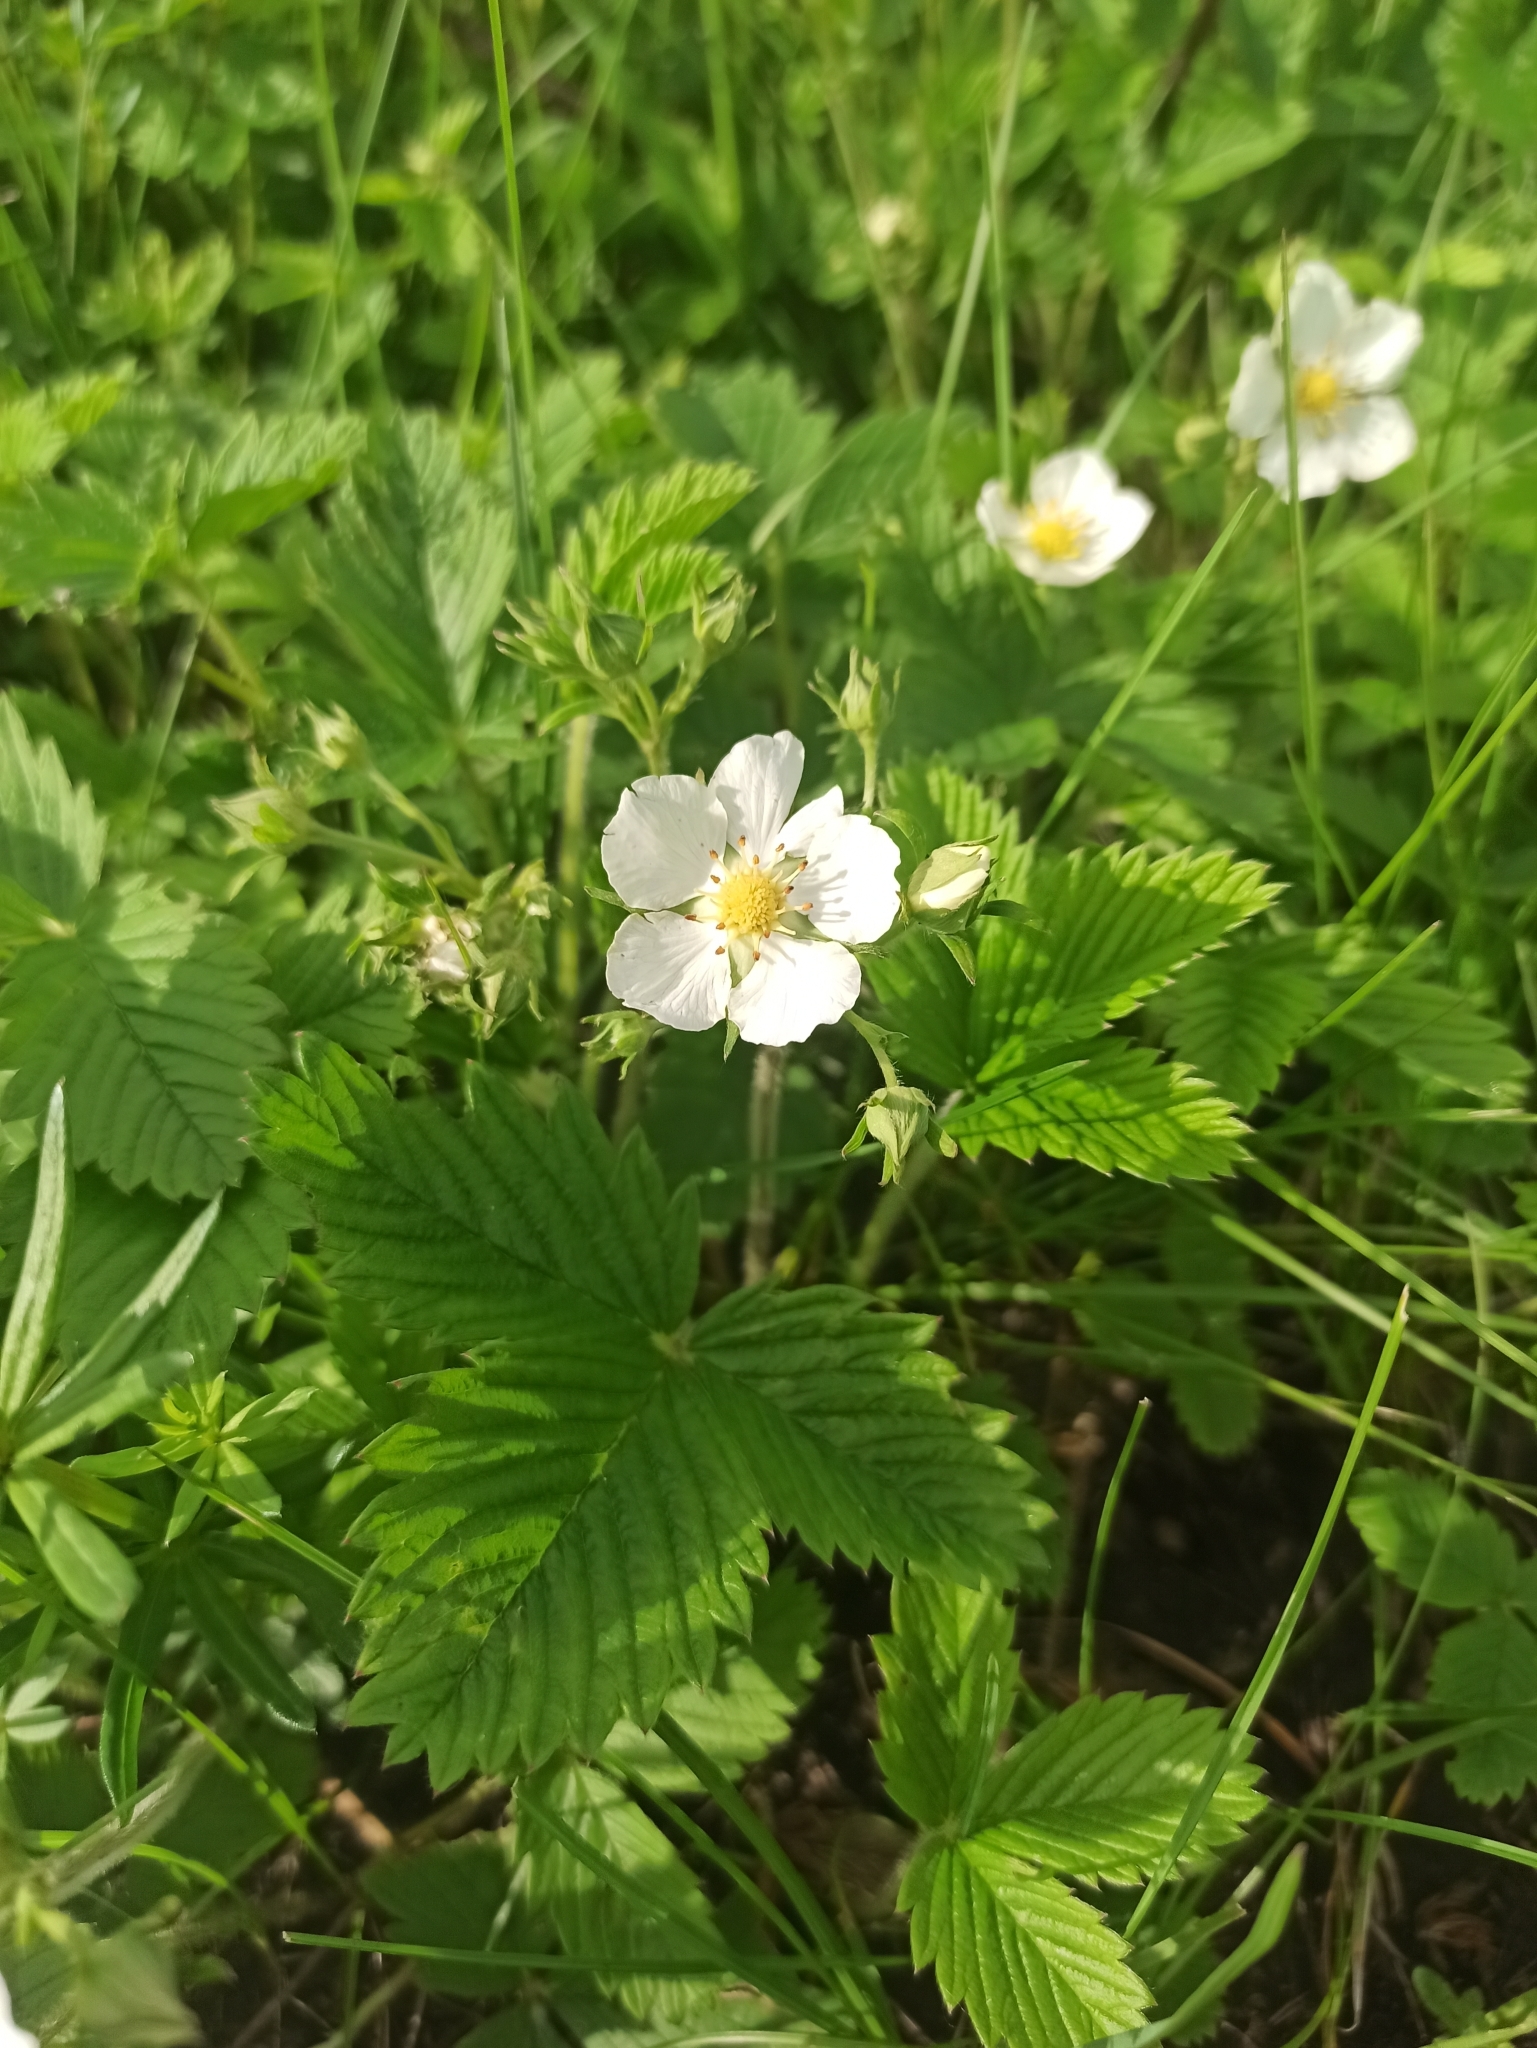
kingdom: Plantae
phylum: Tracheophyta
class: Magnoliopsida
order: Rosales
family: Rosaceae
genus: Fragaria
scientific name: Fragaria viridis
